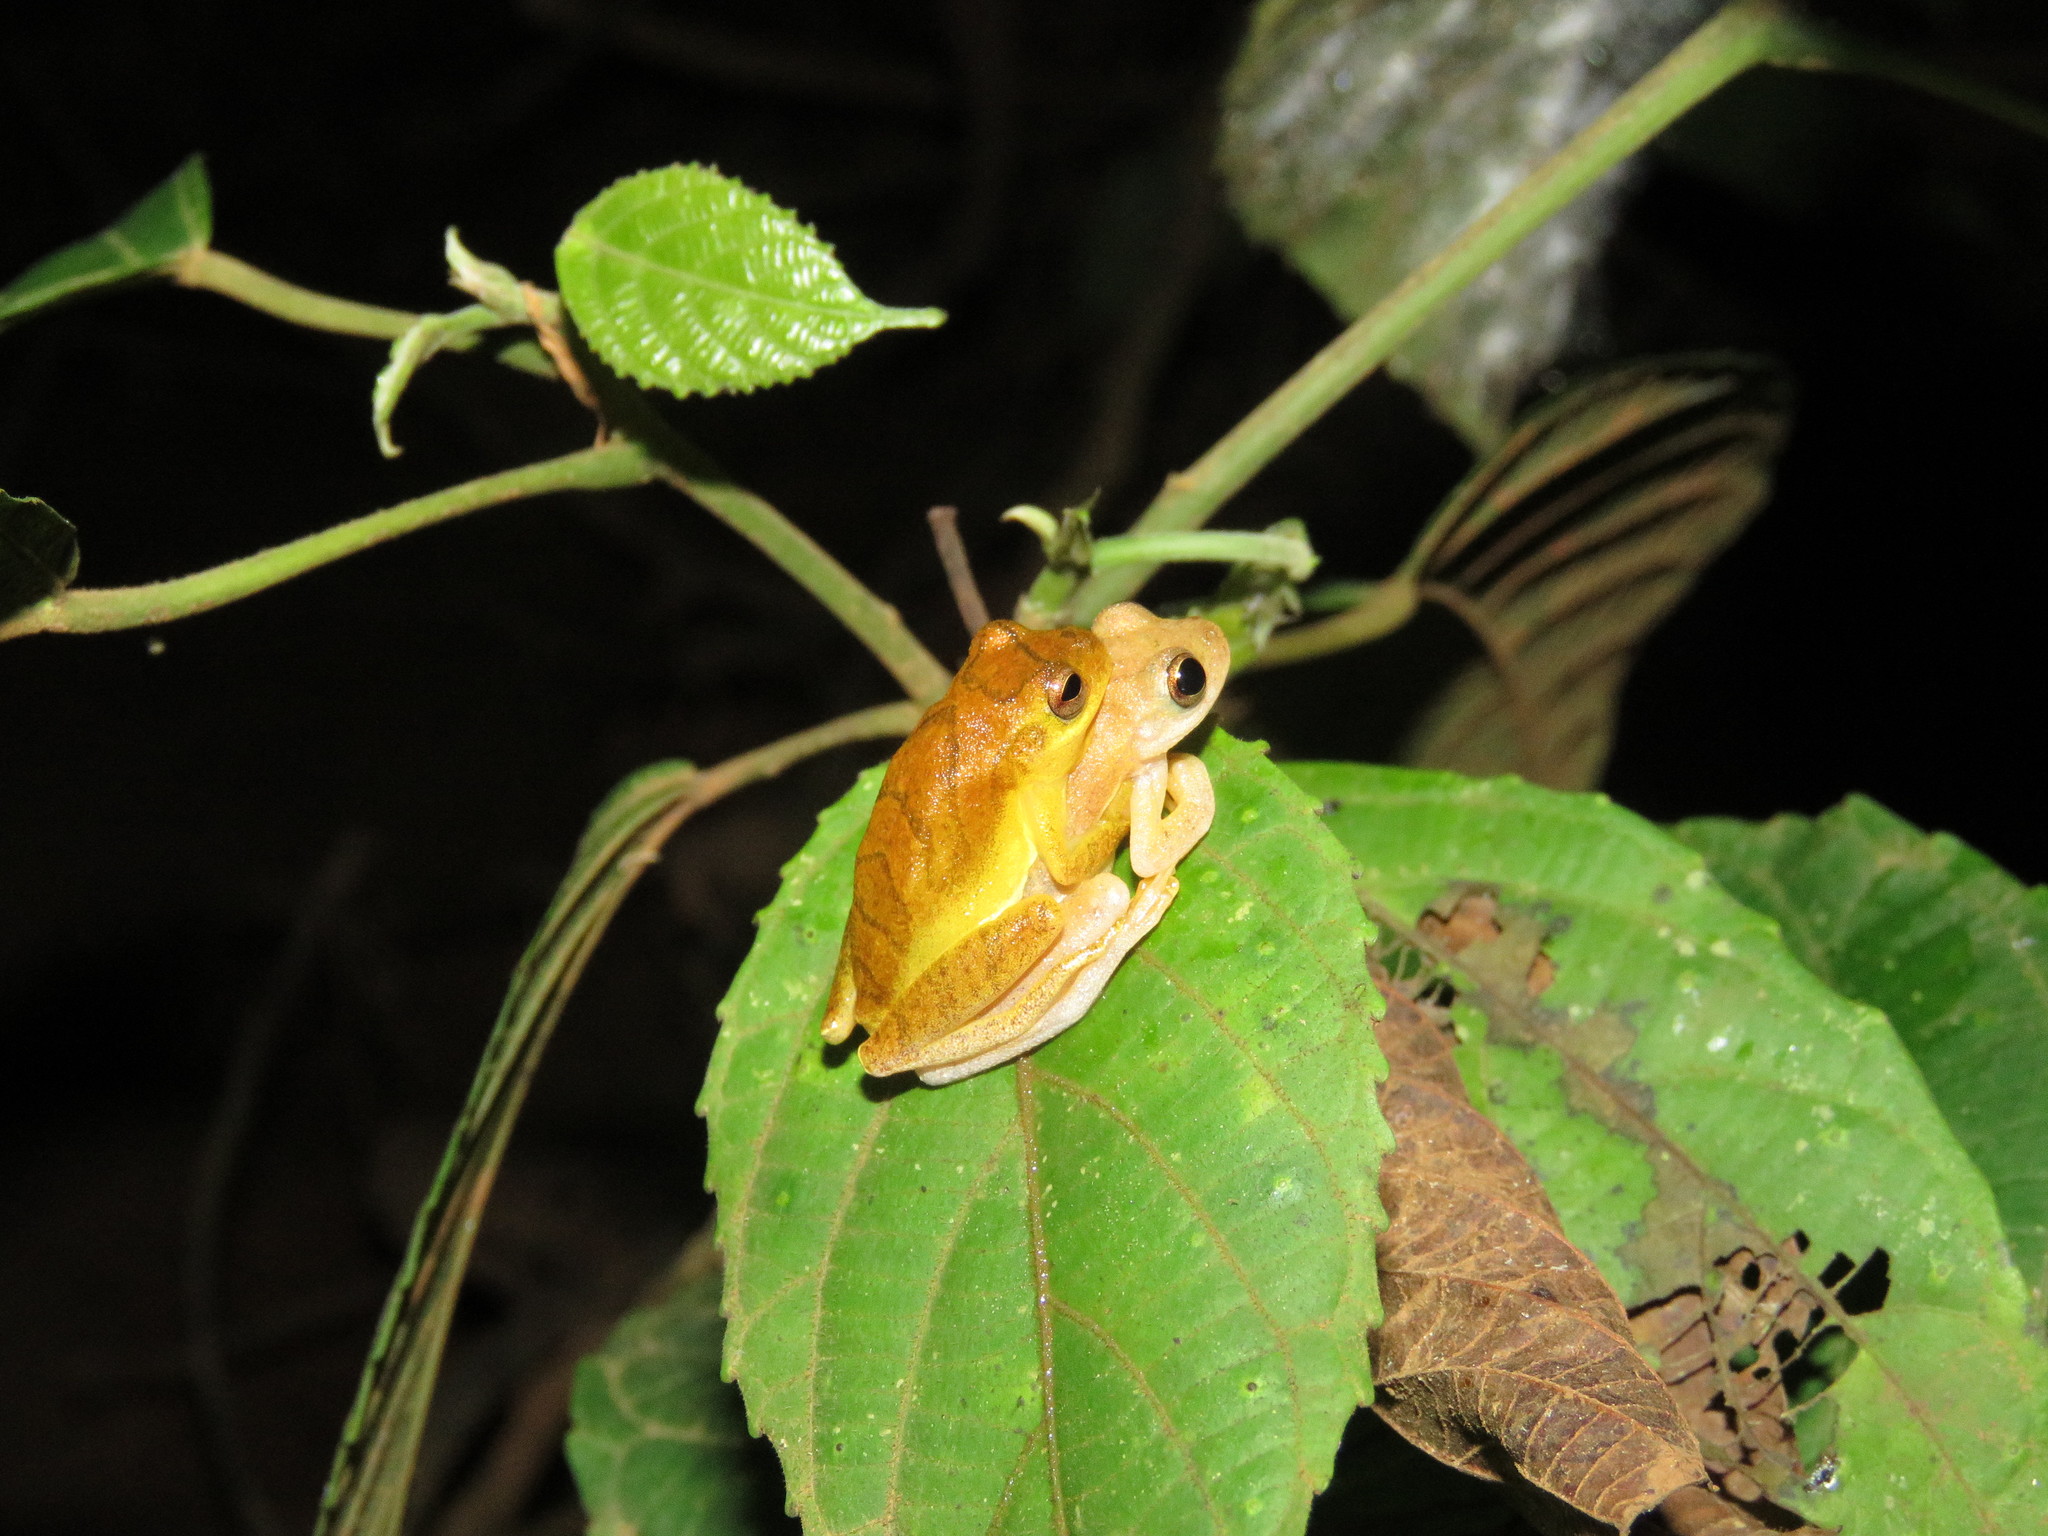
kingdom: Animalia
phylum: Chordata
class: Amphibia
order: Anura
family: Hylidae
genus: Dendropsophus
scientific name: Dendropsophus minutus
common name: Lesser treefrog
